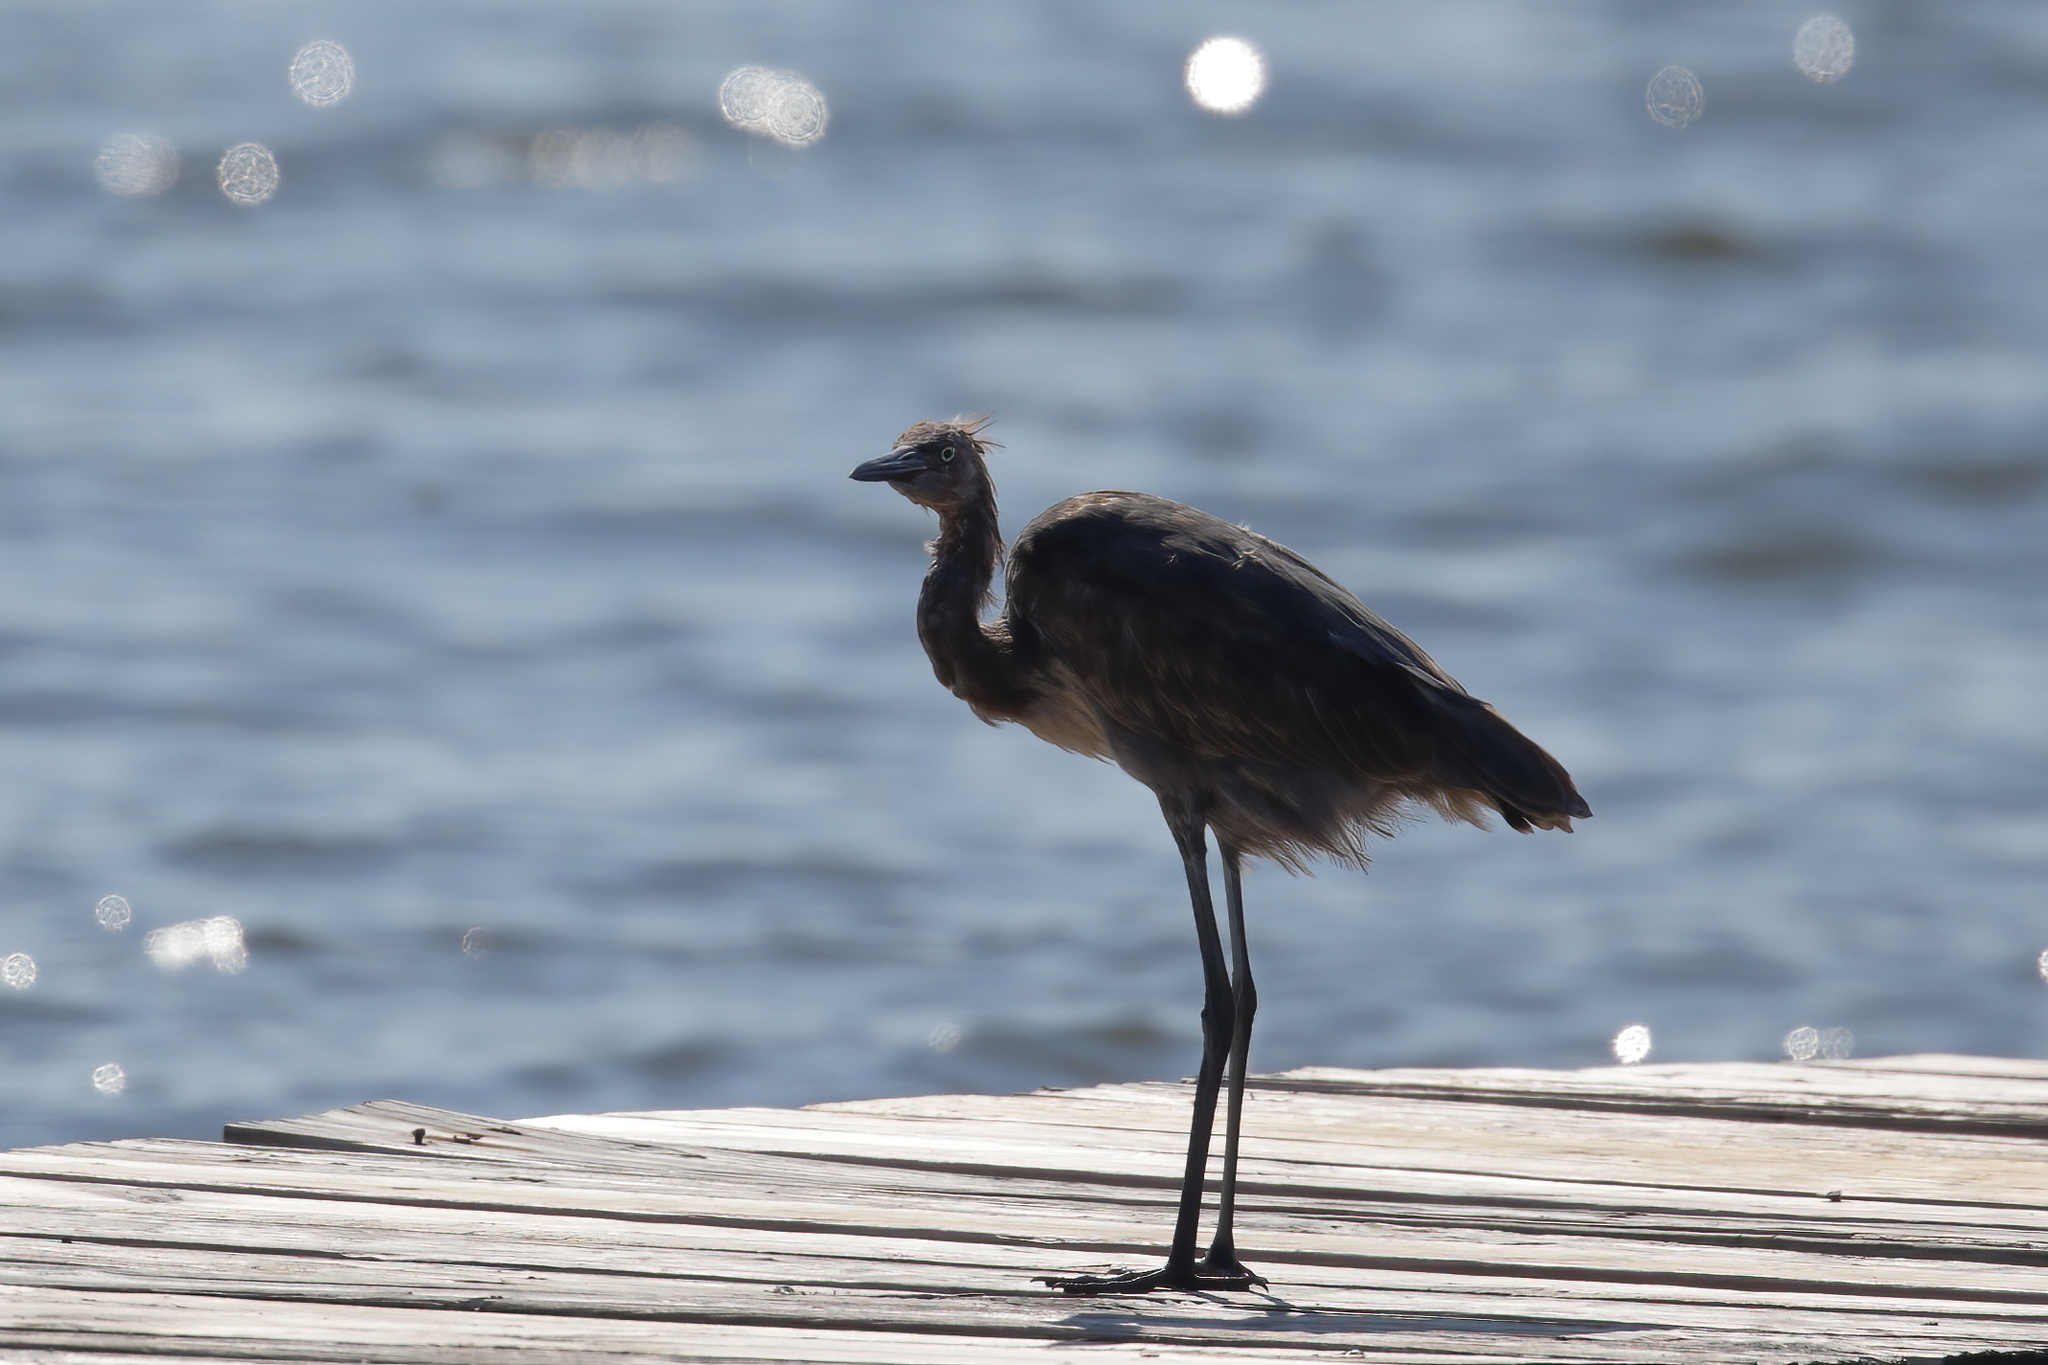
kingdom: Animalia
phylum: Chordata
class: Aves
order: Pelecaniformes
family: Ardeidae
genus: Egretta
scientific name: Egretta rufescens
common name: Reddish egret
